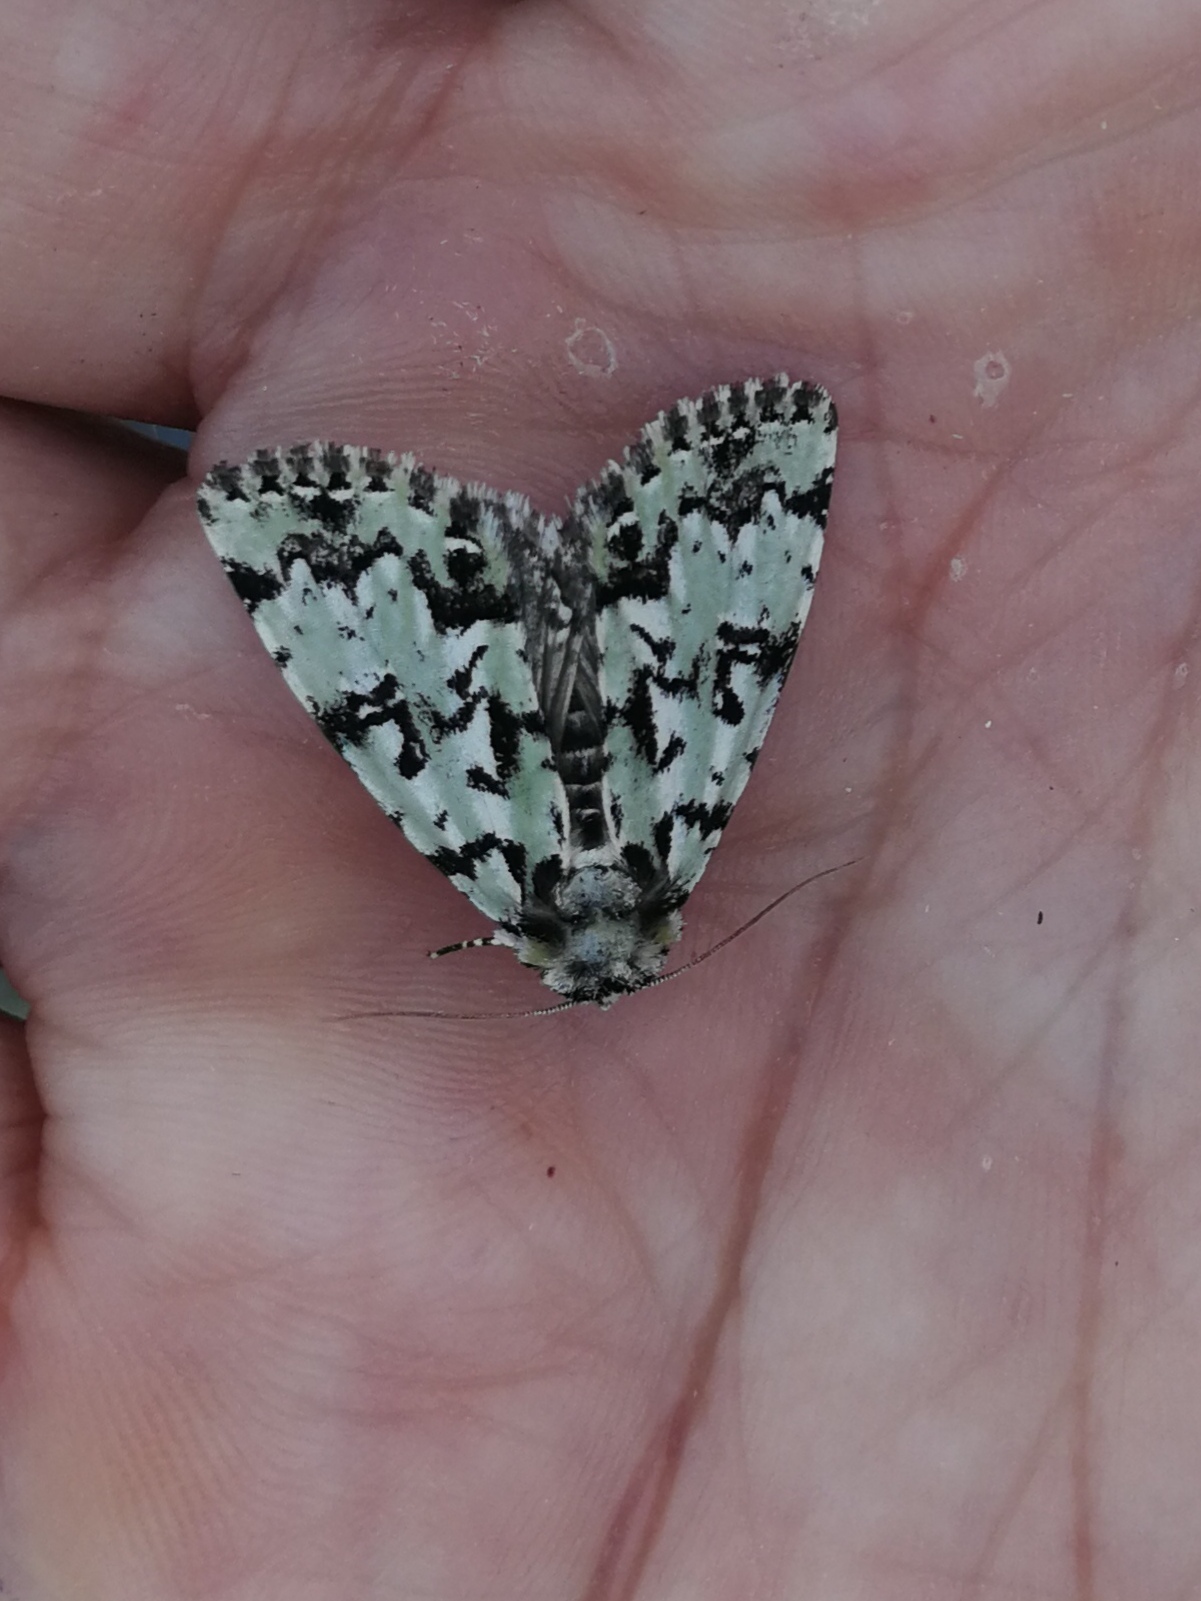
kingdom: Animalia
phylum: Arthropoda
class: Insecta
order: Lepidoptera
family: Noctuidae
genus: Moma
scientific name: Moma alpium
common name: Scarce merveille du jour
